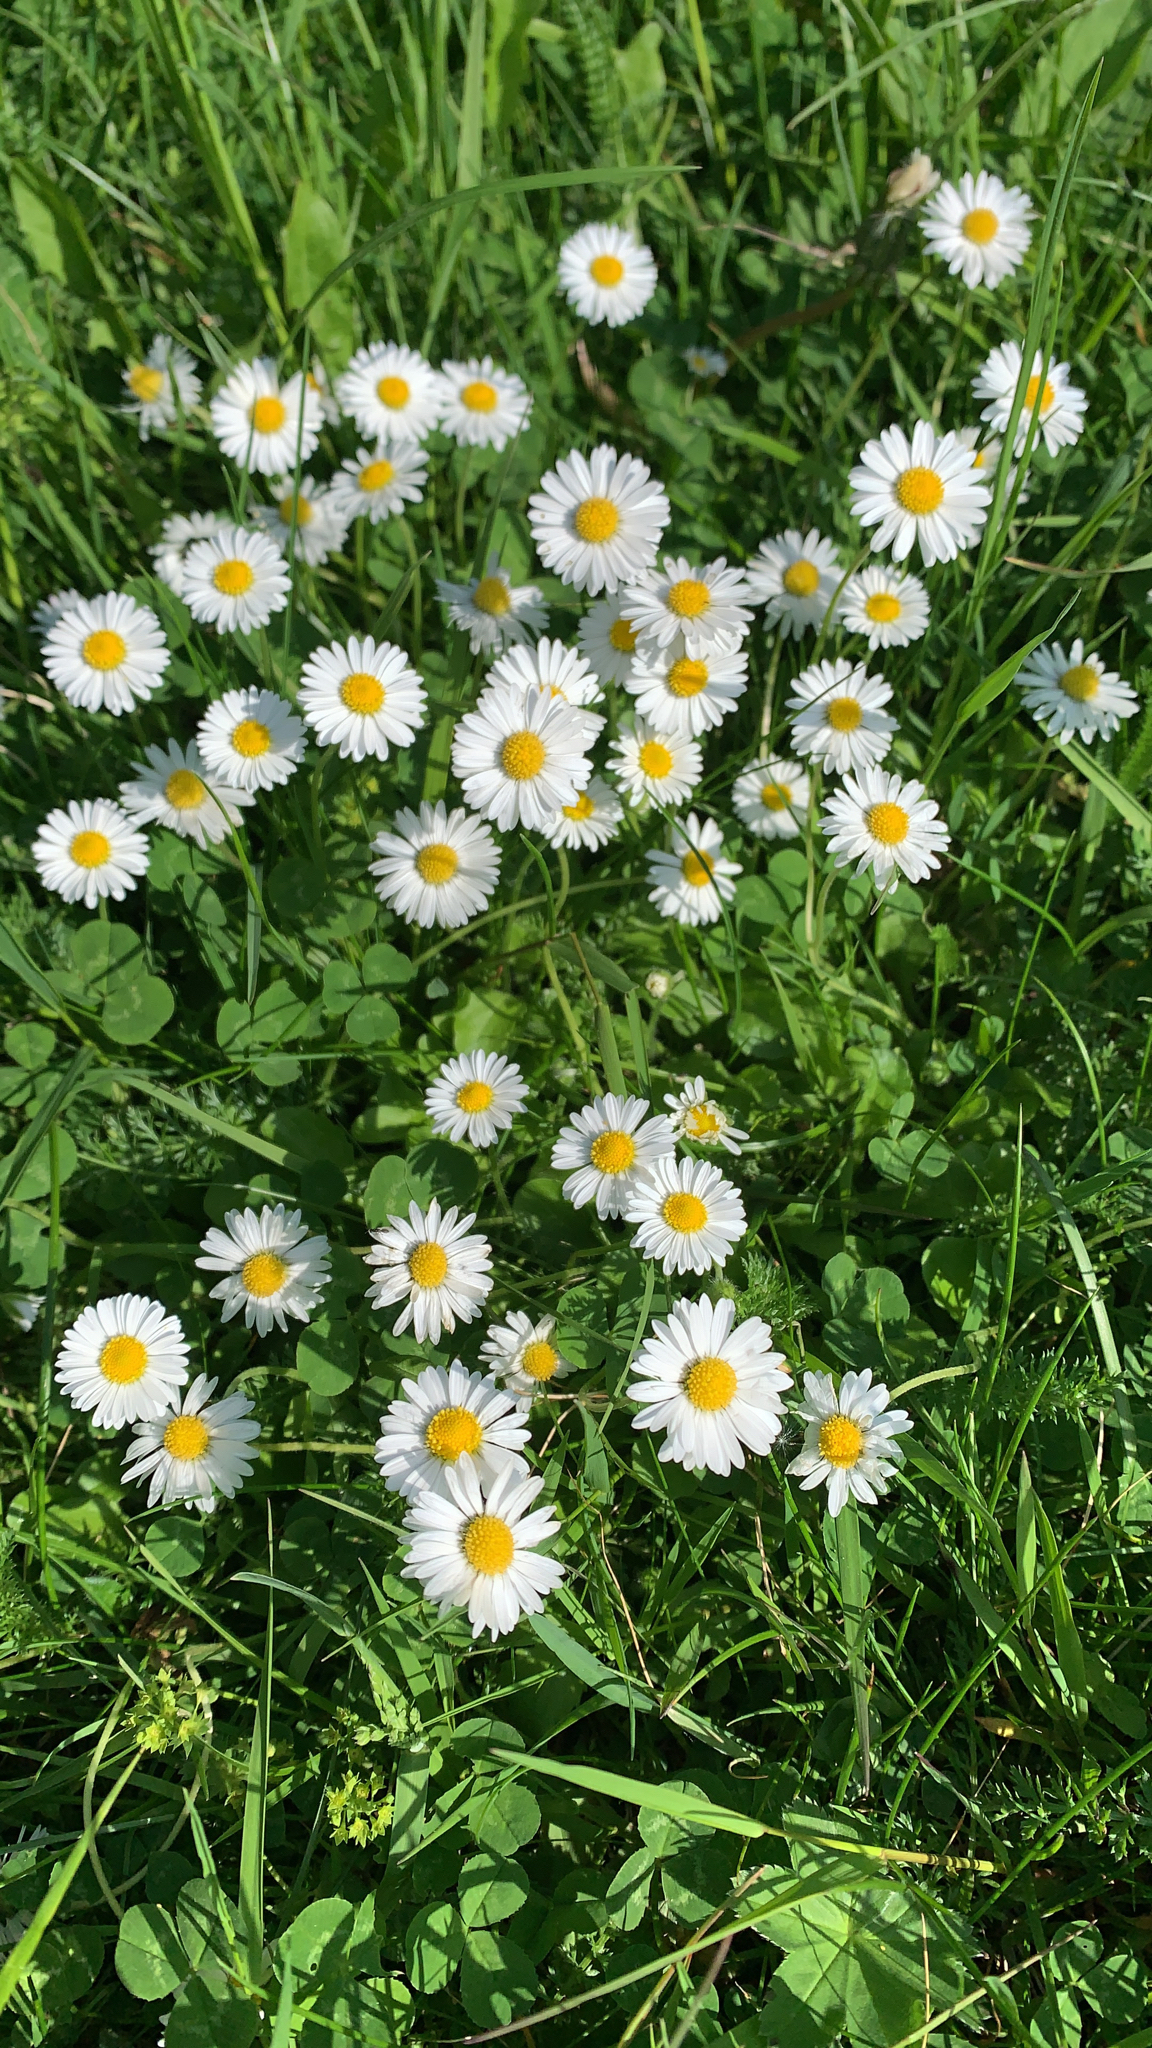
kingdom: Plantae
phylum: Tracheophyta
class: Magnoliopsida
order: Asterales
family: Asteraceae
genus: Bellis
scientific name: Bellis perennis
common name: Lawndaisy
